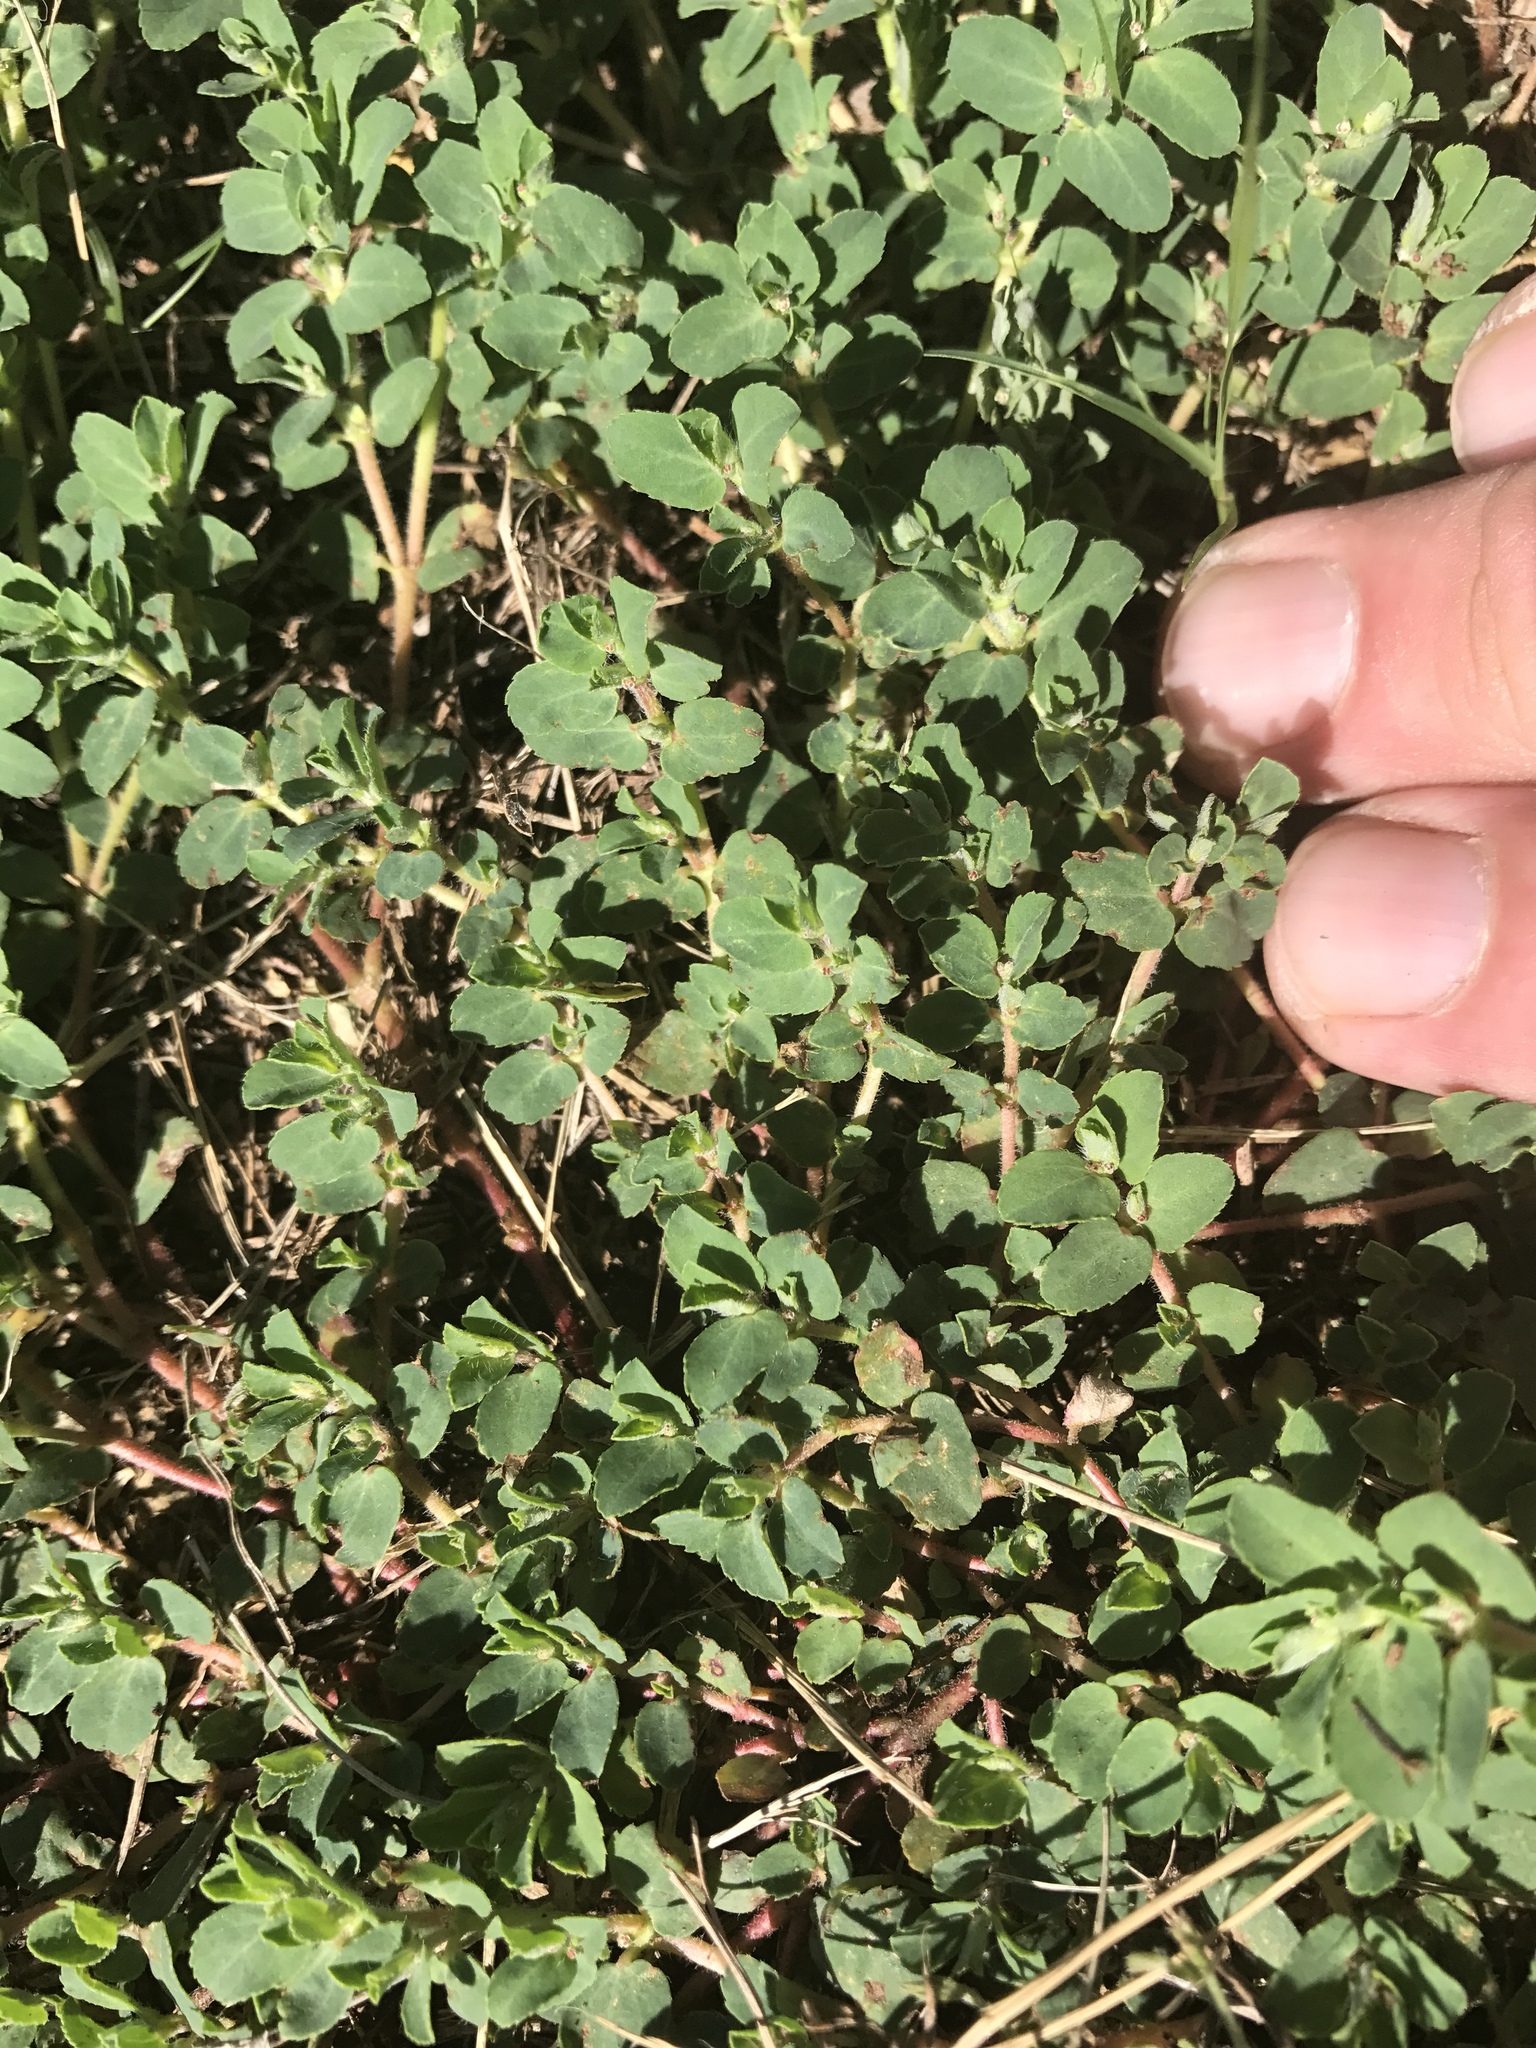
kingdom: Plantae
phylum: Tracheophyta
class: Magnoliopsida
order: Malpighiales
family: Euphorbiaceae
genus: Euphorbia
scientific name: Euphorbia stictospora
